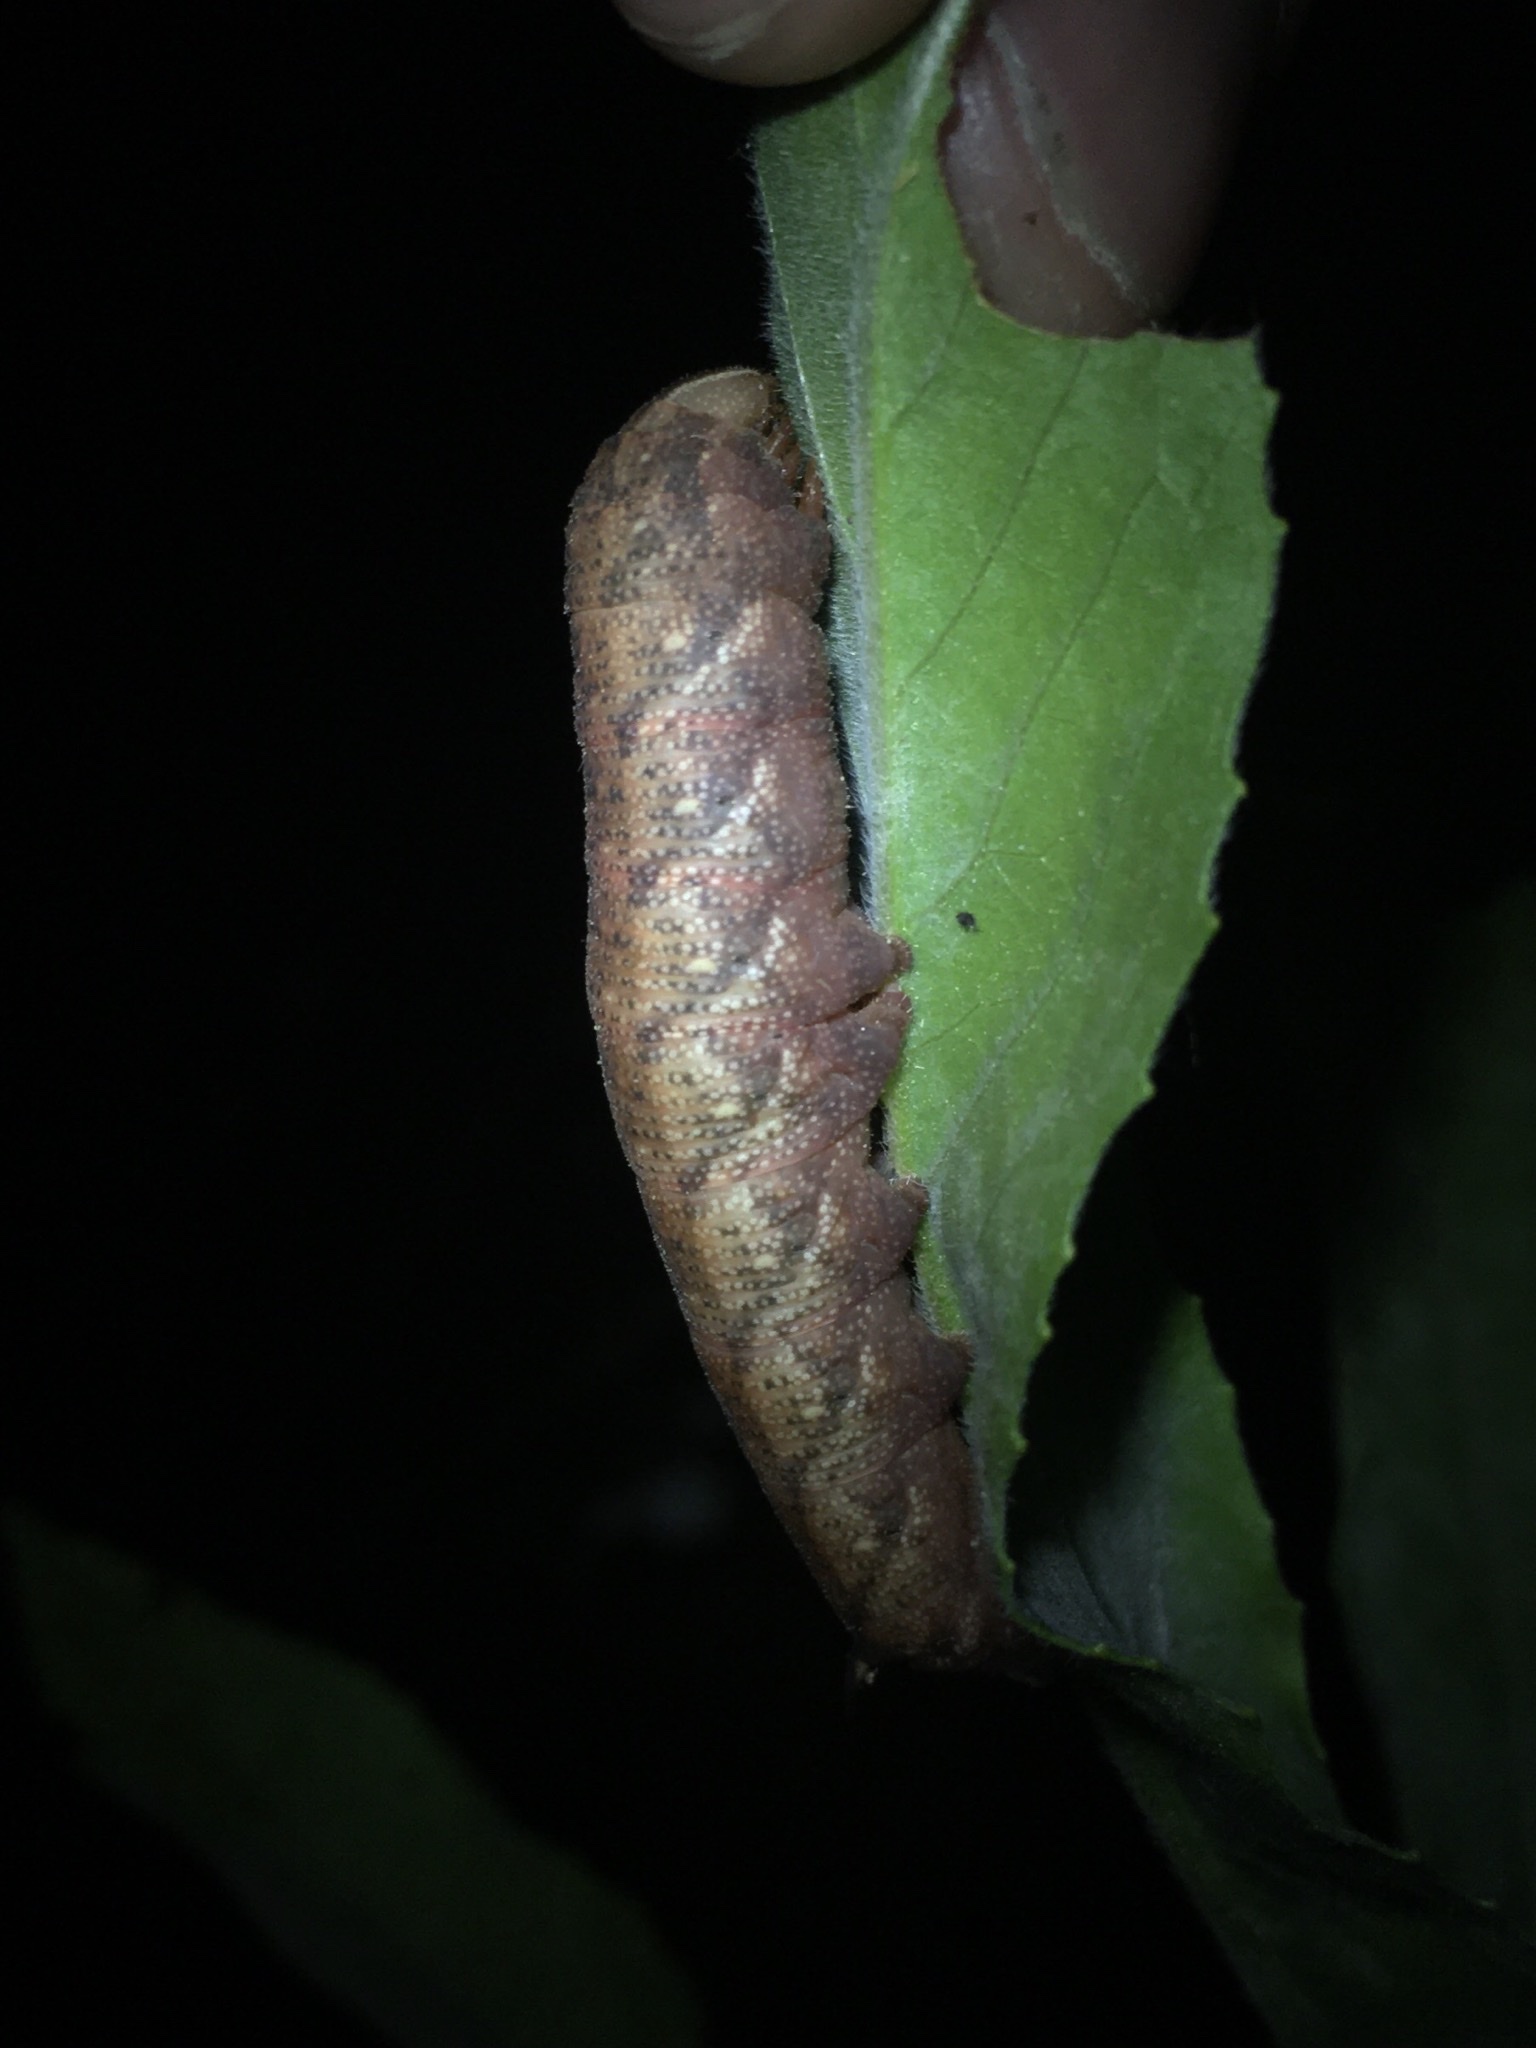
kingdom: Animalia
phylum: Arthropoda
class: Insecta
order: Lepidoptera
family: Sphingidae
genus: Amphion
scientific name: Amphion floridensis
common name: Nessus sphinx
